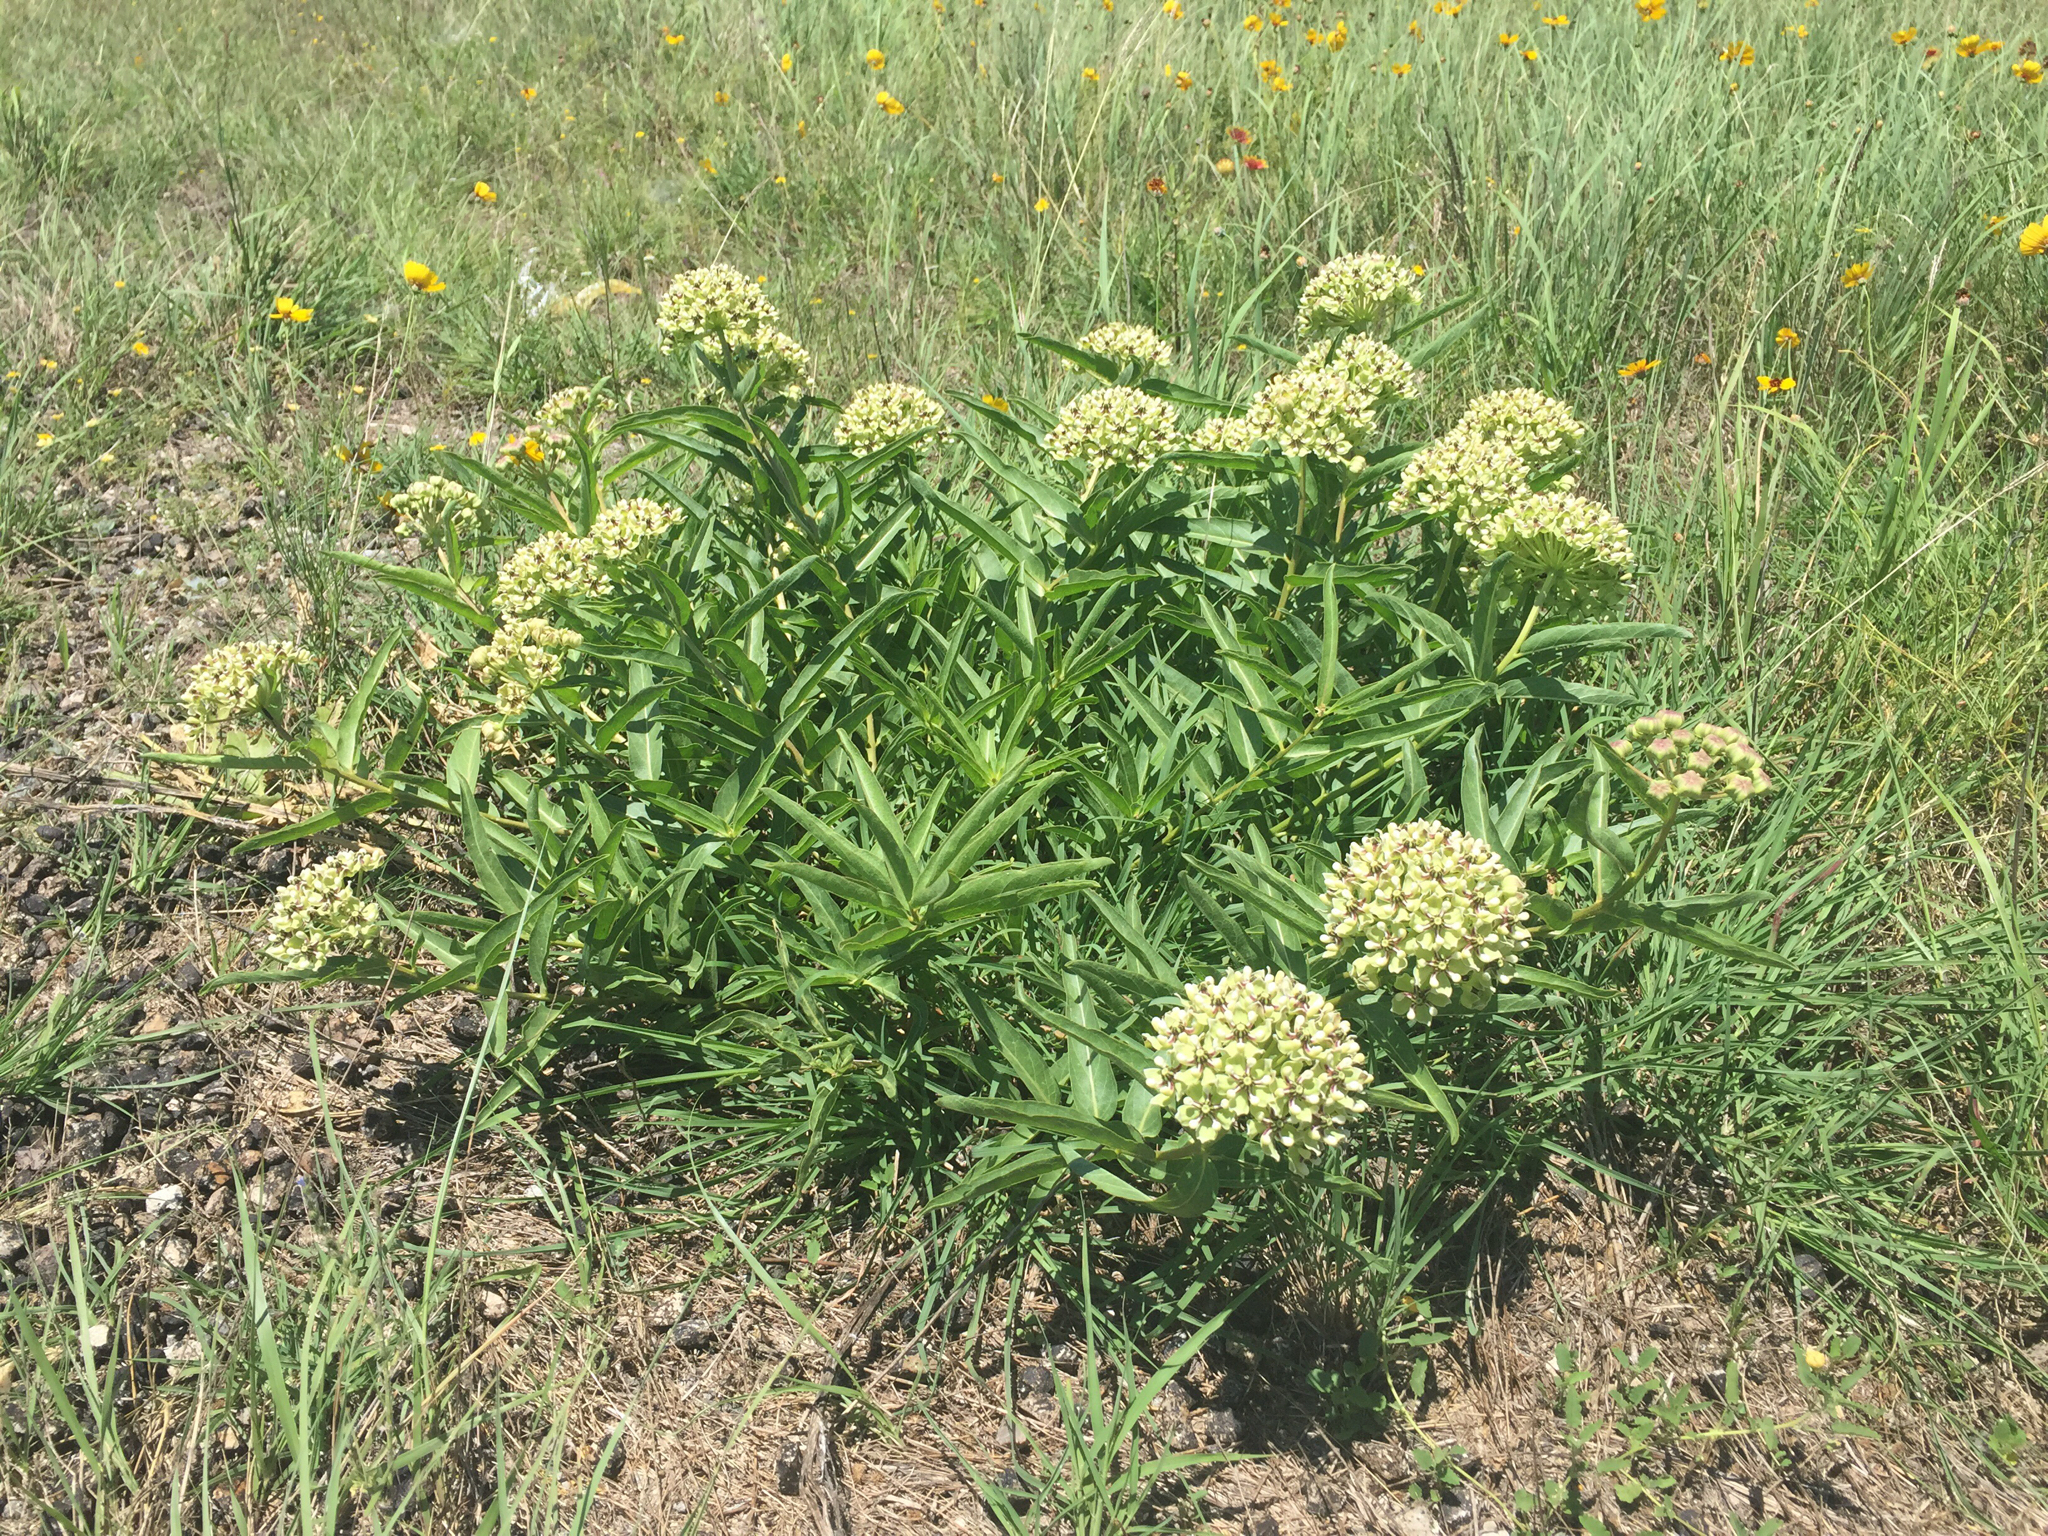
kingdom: Plantae
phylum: Tracheophyta
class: Magnoliopsida
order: Gentianales
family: Apocynaceae
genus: Asclepias
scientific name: Asclepias asperula
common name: Antelope horns
